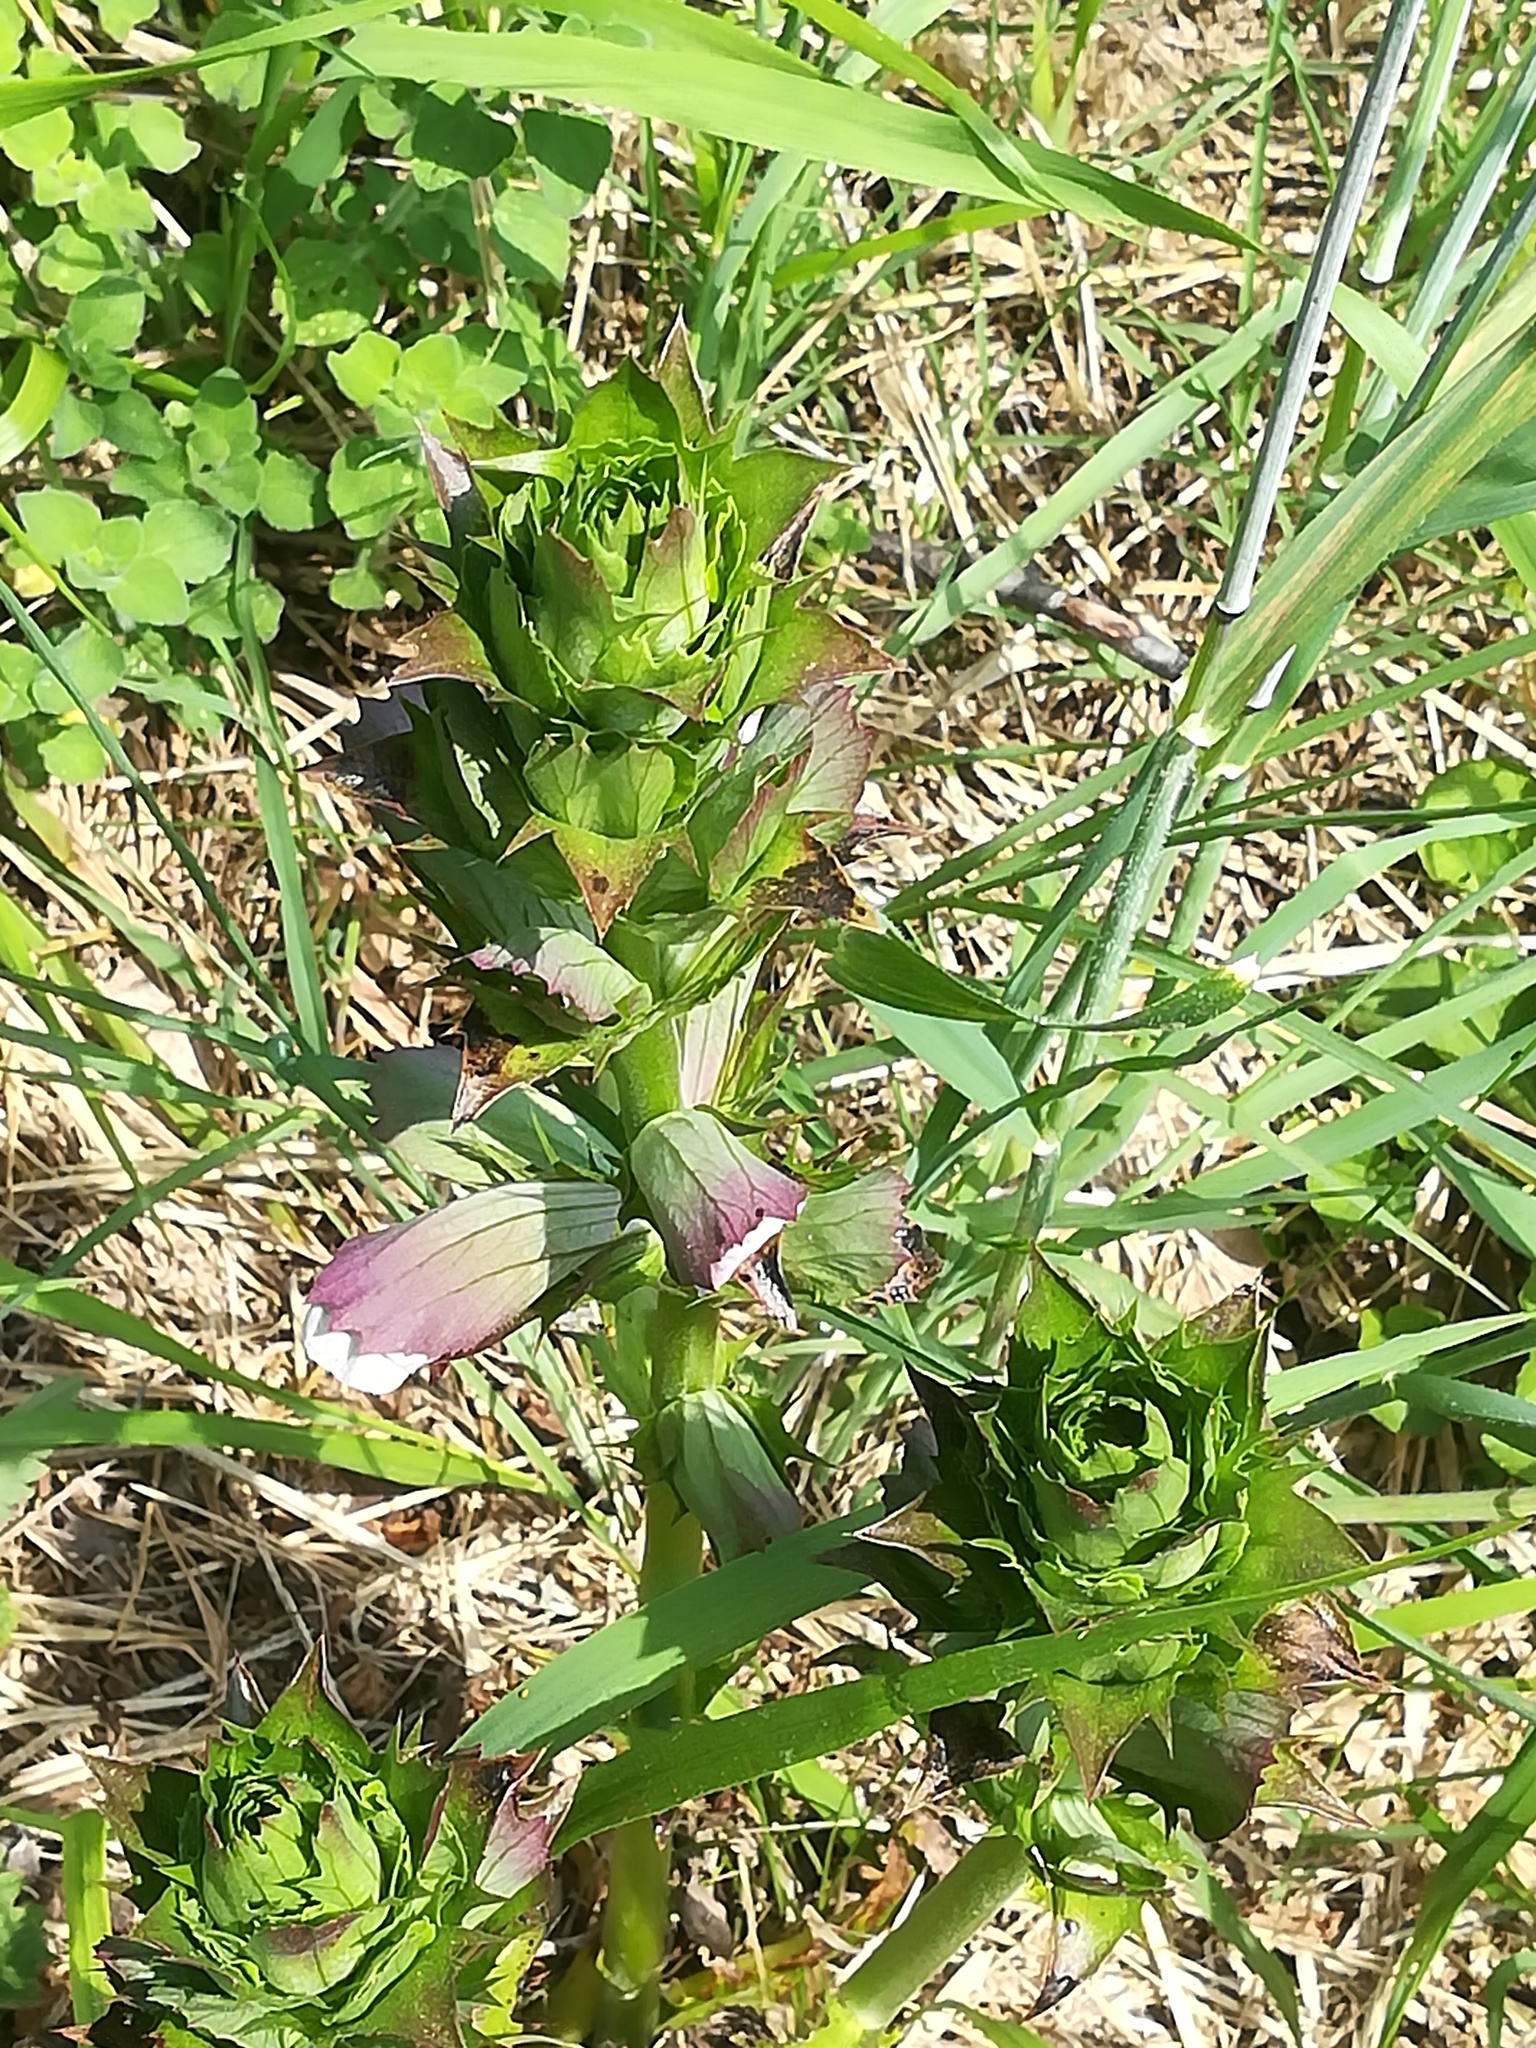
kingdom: Plantae
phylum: Tracheophyta
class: Magnoliopsida
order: Lamiales
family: Acanthaceae
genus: Acanthus
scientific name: Acanthus mollis
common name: Bear's-breech
